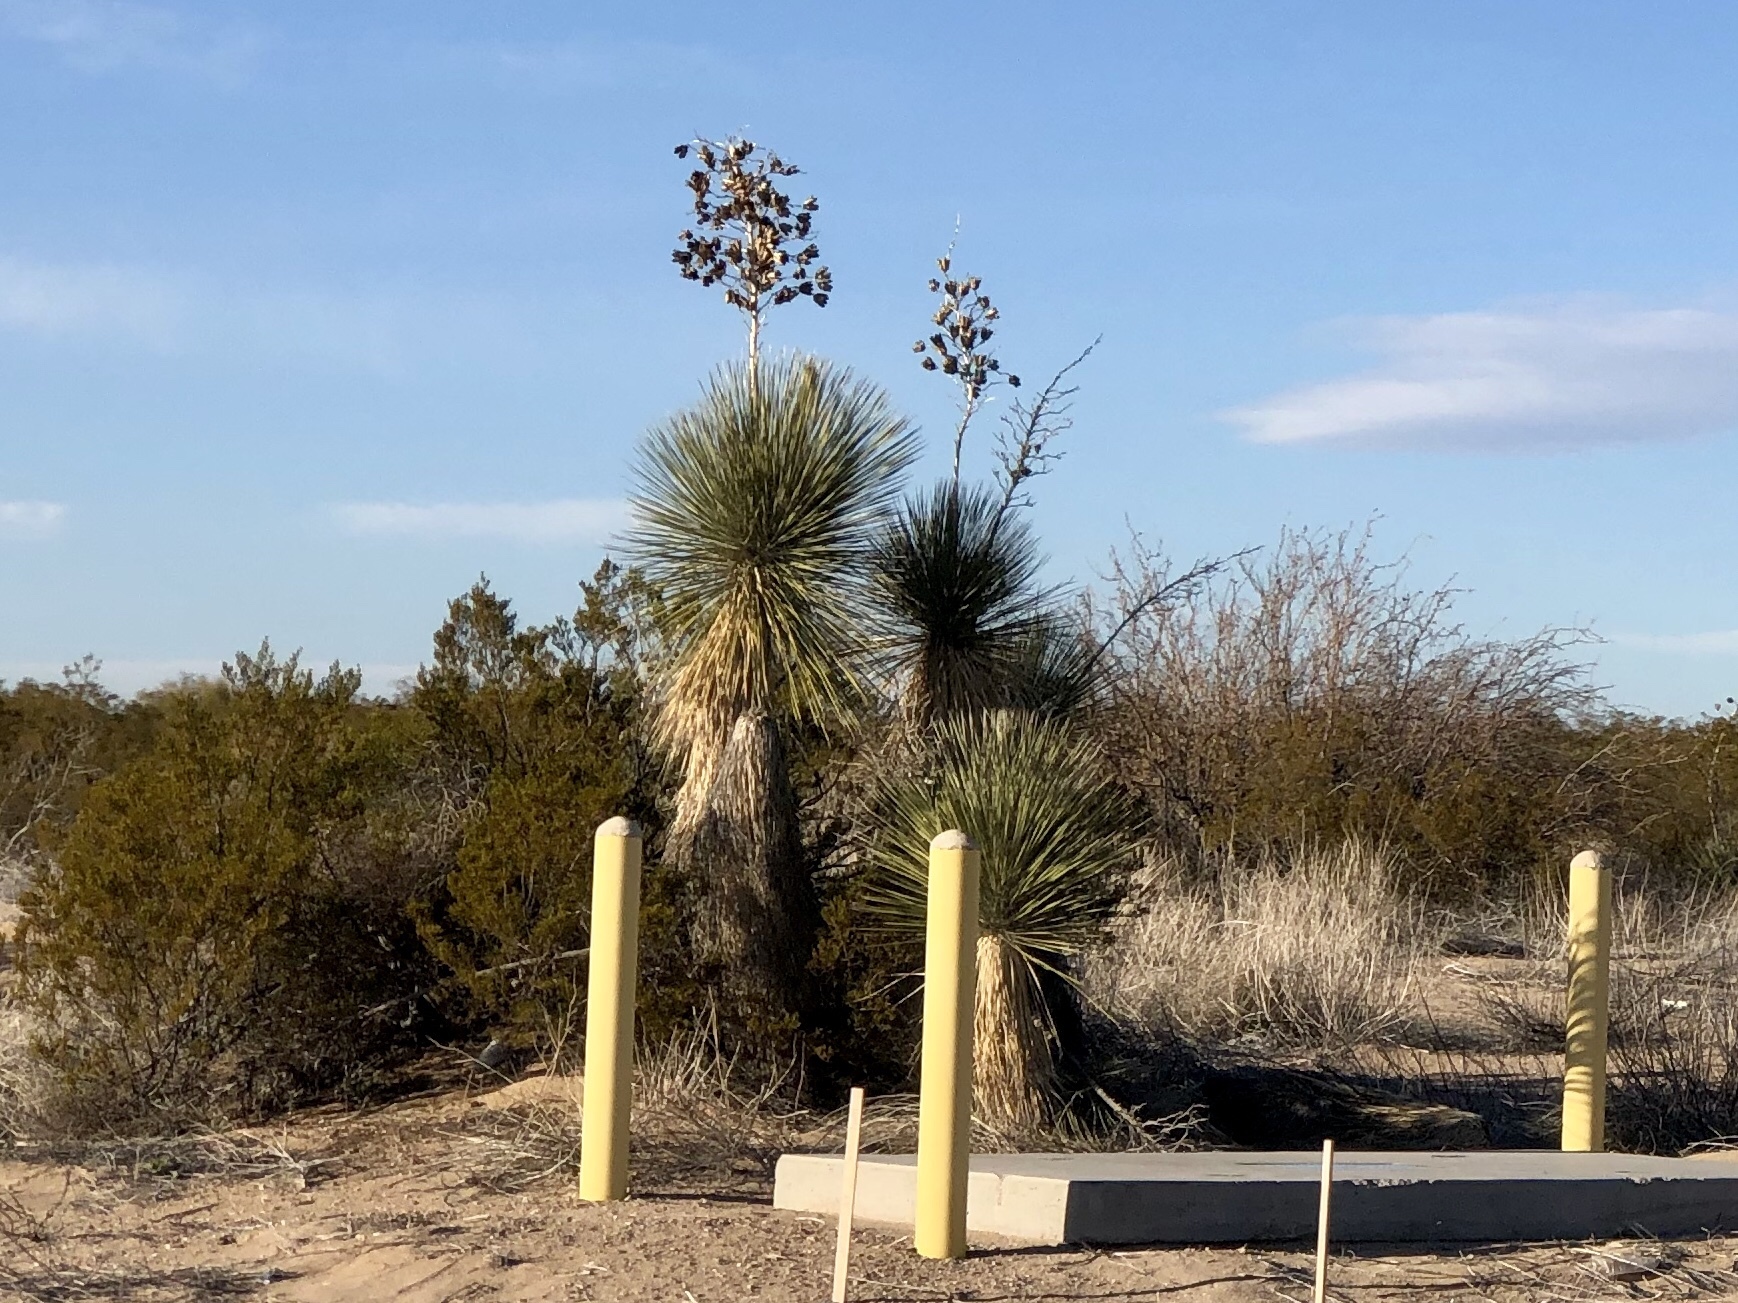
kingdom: Plantae
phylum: Tracheophyta
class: Liliopsida
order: Asparagales
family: Asparagaceae
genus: Yucca
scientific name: Yucca elata
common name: Palmella
